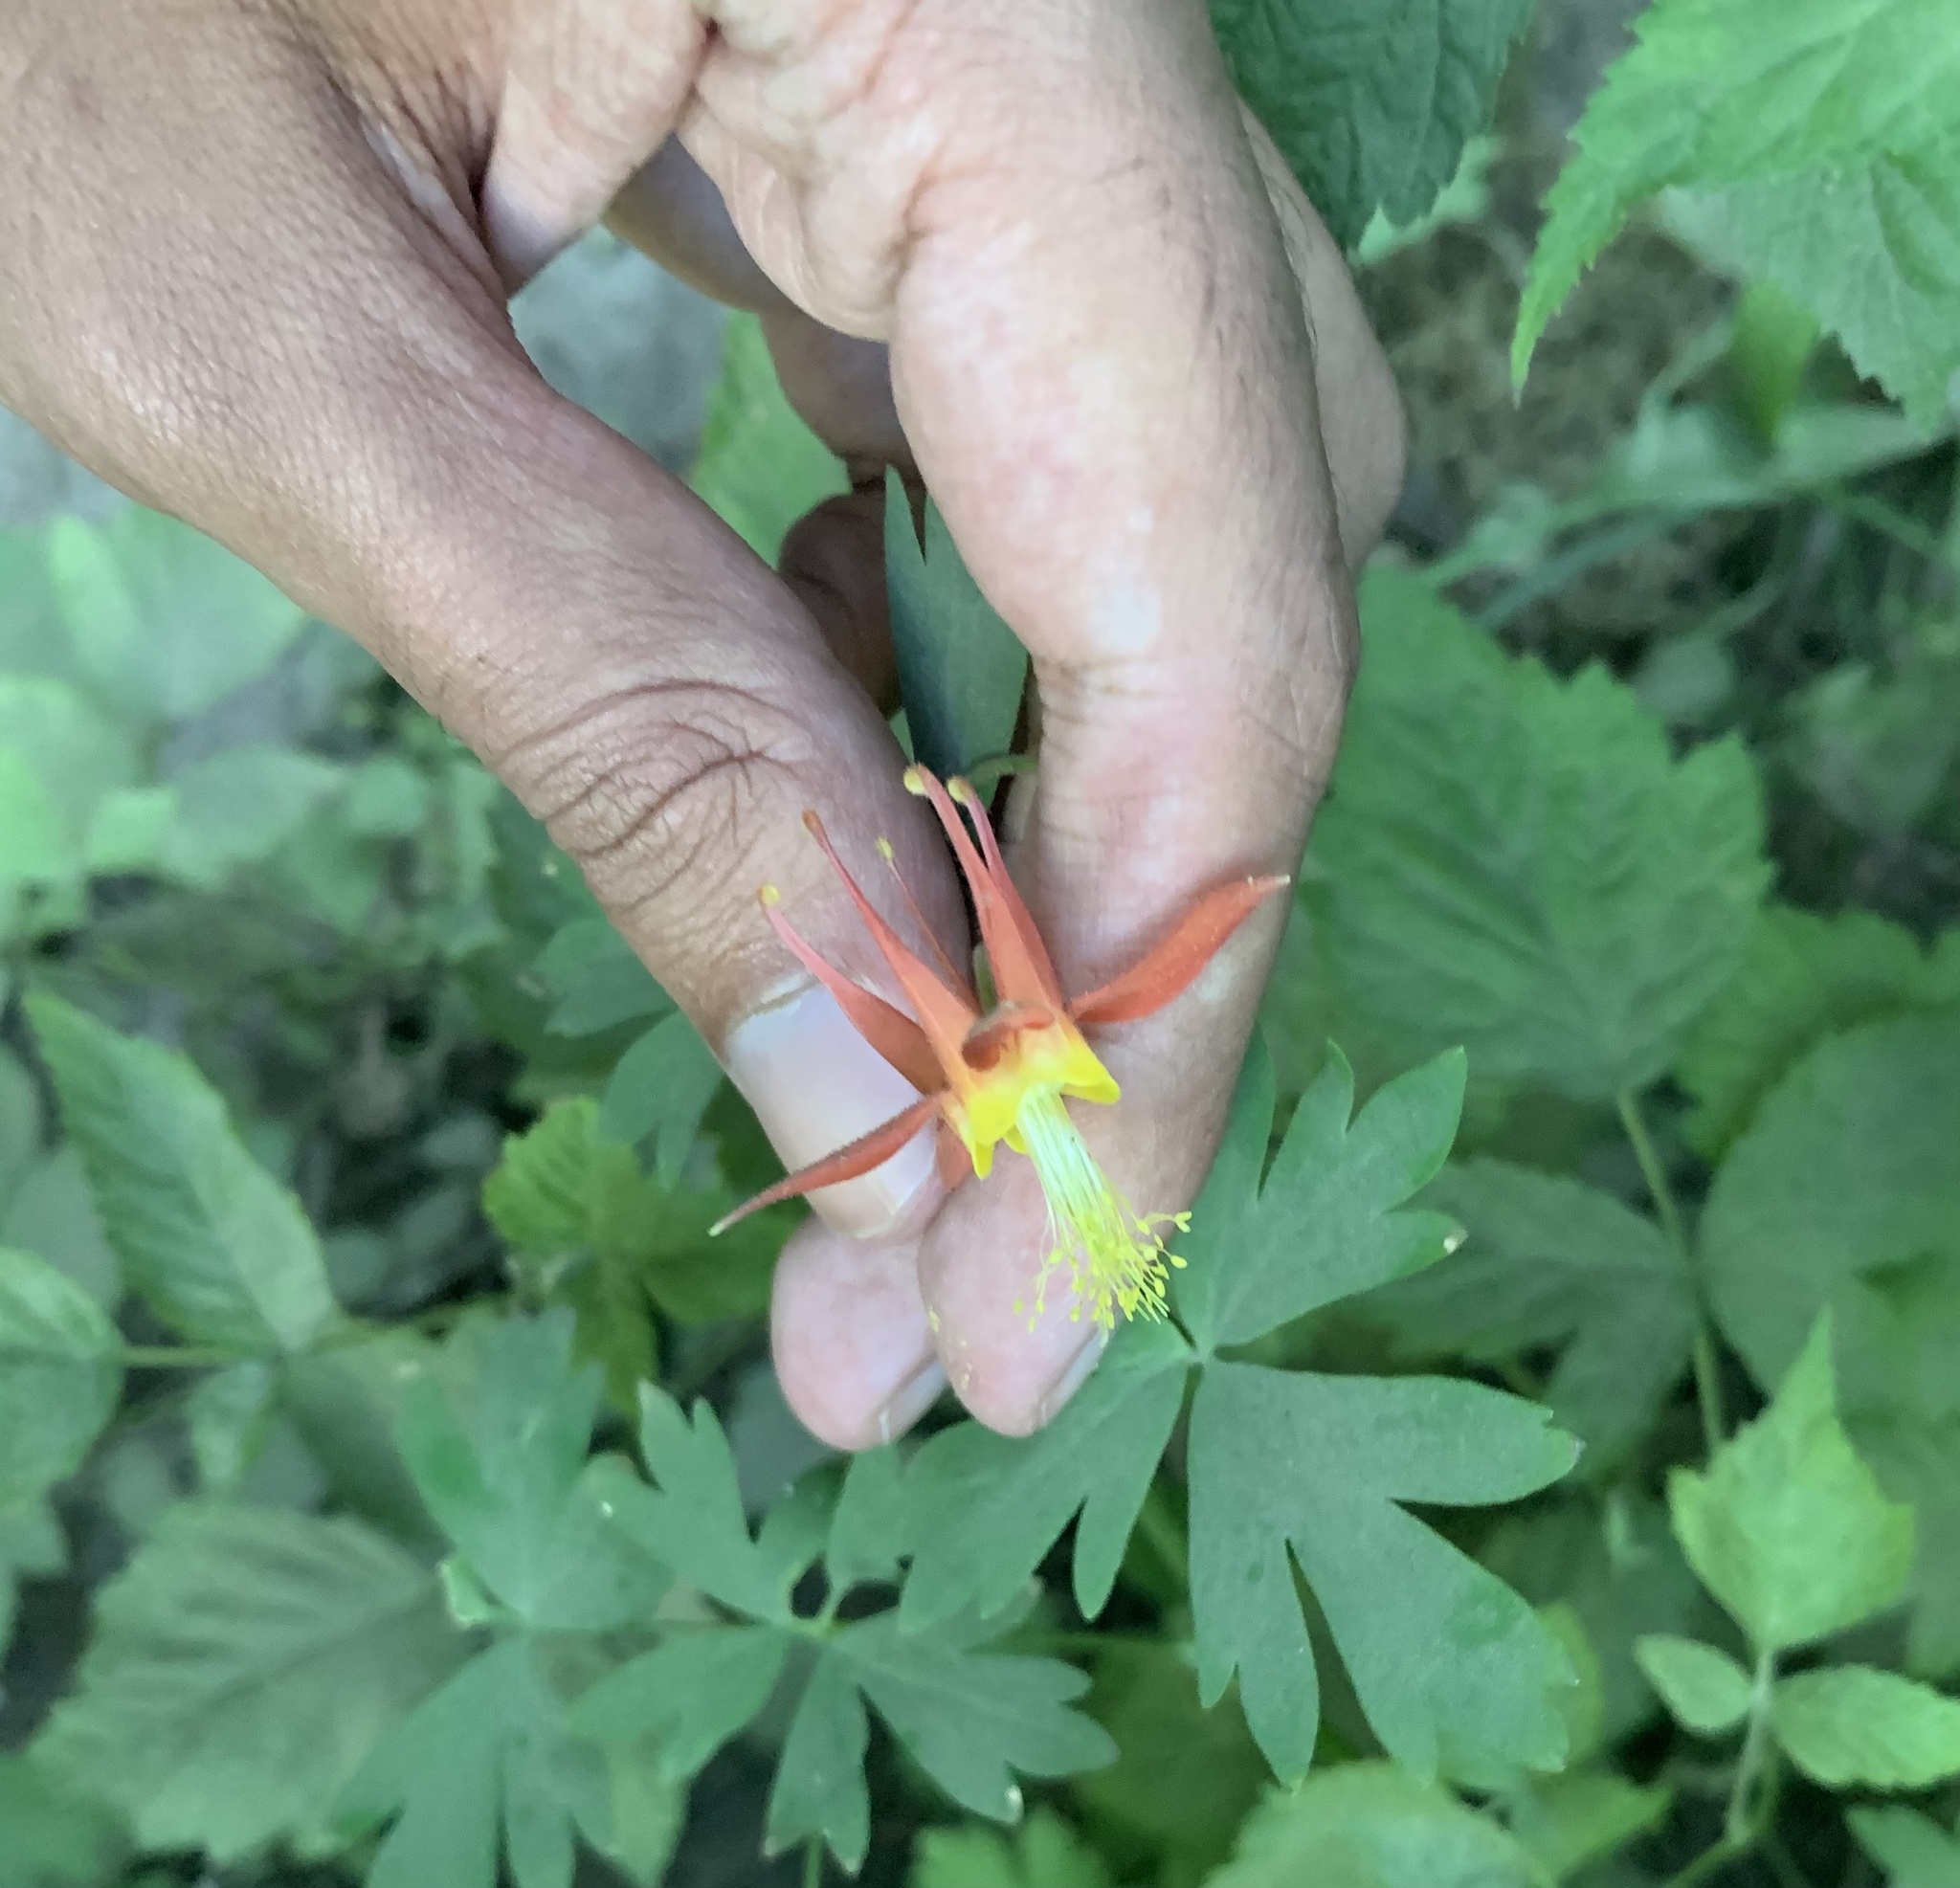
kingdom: Plantae
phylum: Tracheophyta
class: Magnoliopsida
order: Ranunculales
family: Ranunculaceae
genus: Aquilegia
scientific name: Aquilegia formosa
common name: Sitka columbine
